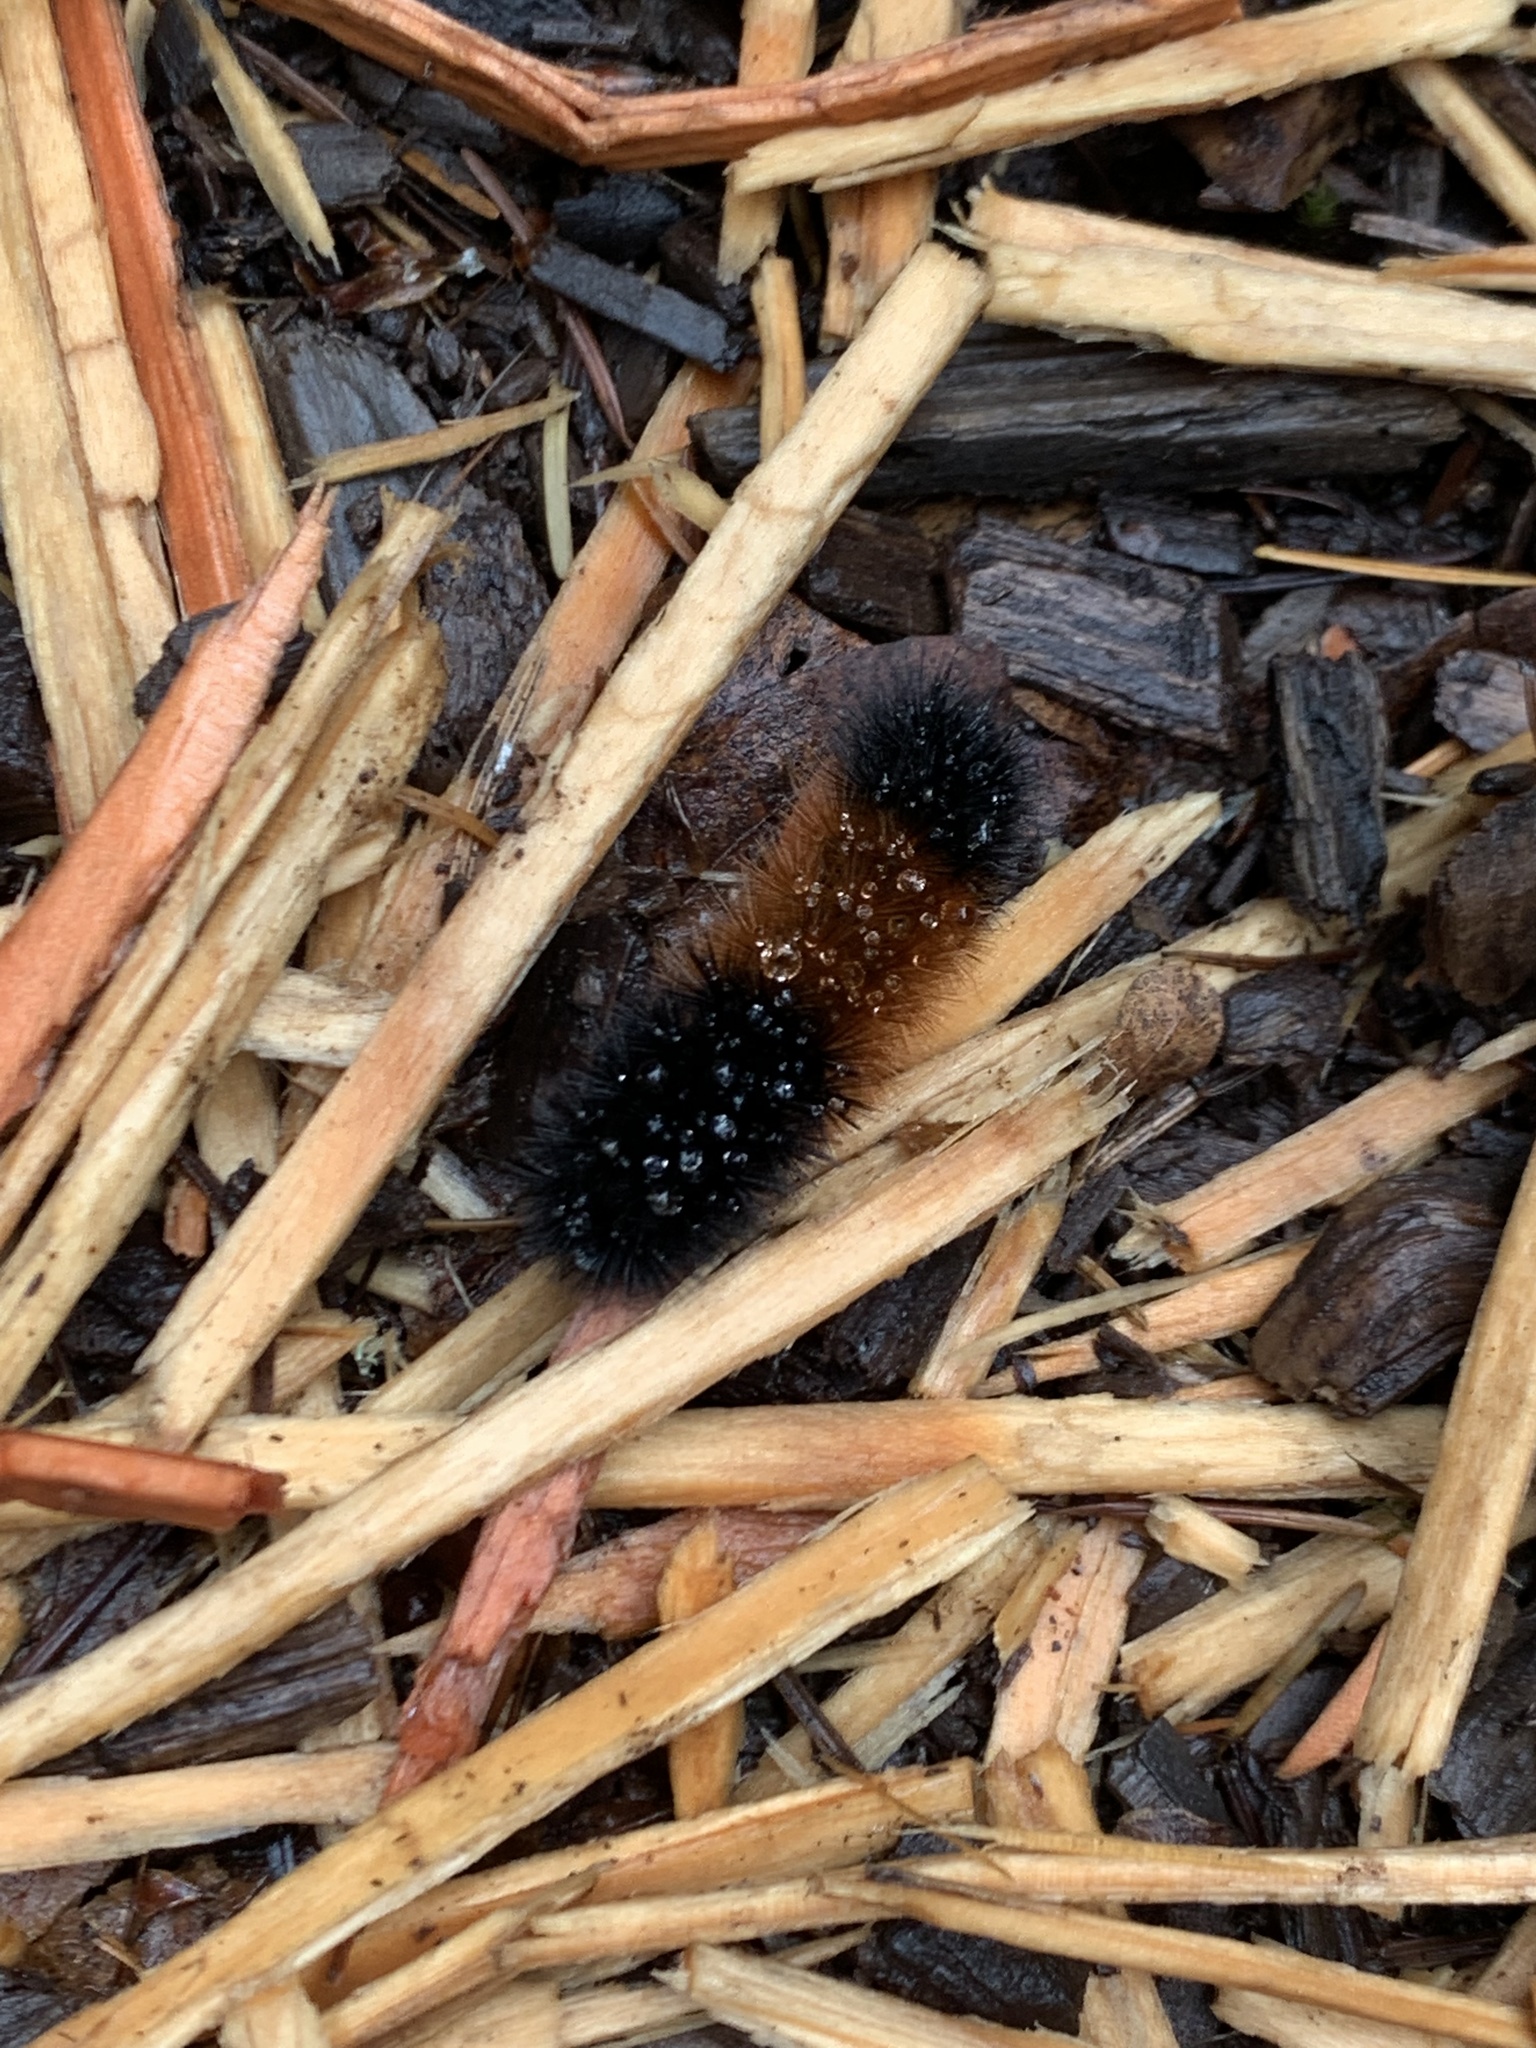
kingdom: Animalia
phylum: Arthropoda
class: Insecta
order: Lepidoptera
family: Erebidae
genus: Pyrrharctia
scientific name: Pyrrharctia isabella
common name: Isabella tiger moth
